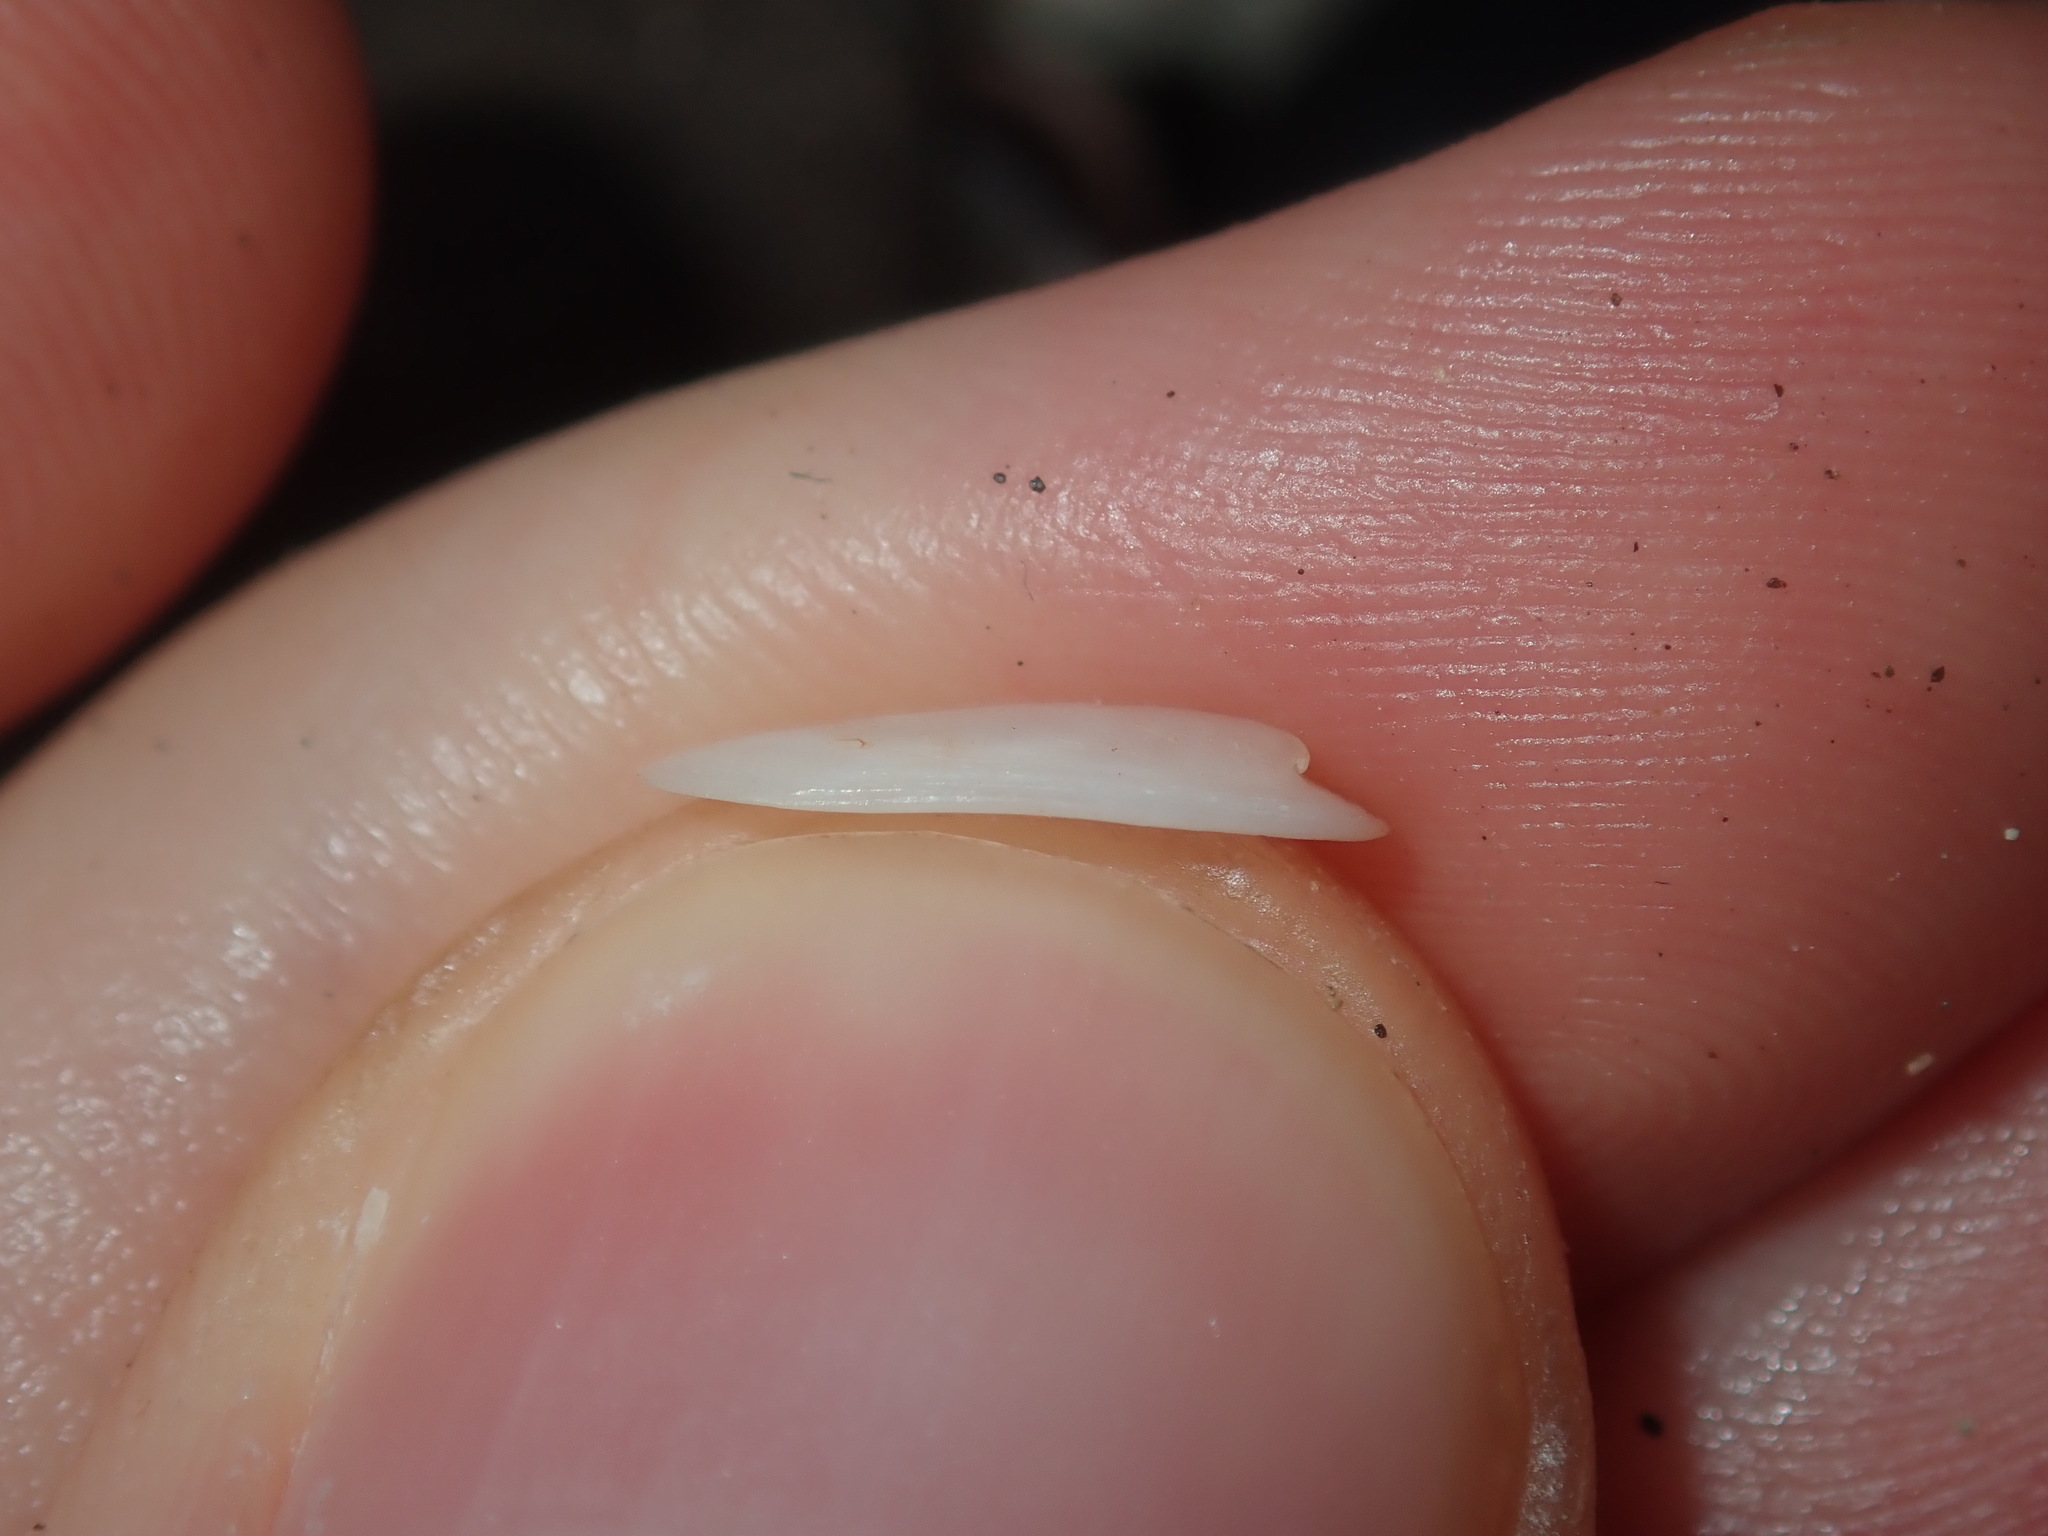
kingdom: Animalia
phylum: Mollusca
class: Gastropoda
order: Lepetellida
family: Fissurellidae
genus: Scutus
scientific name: Scutus antipodes
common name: Duckbill shell
